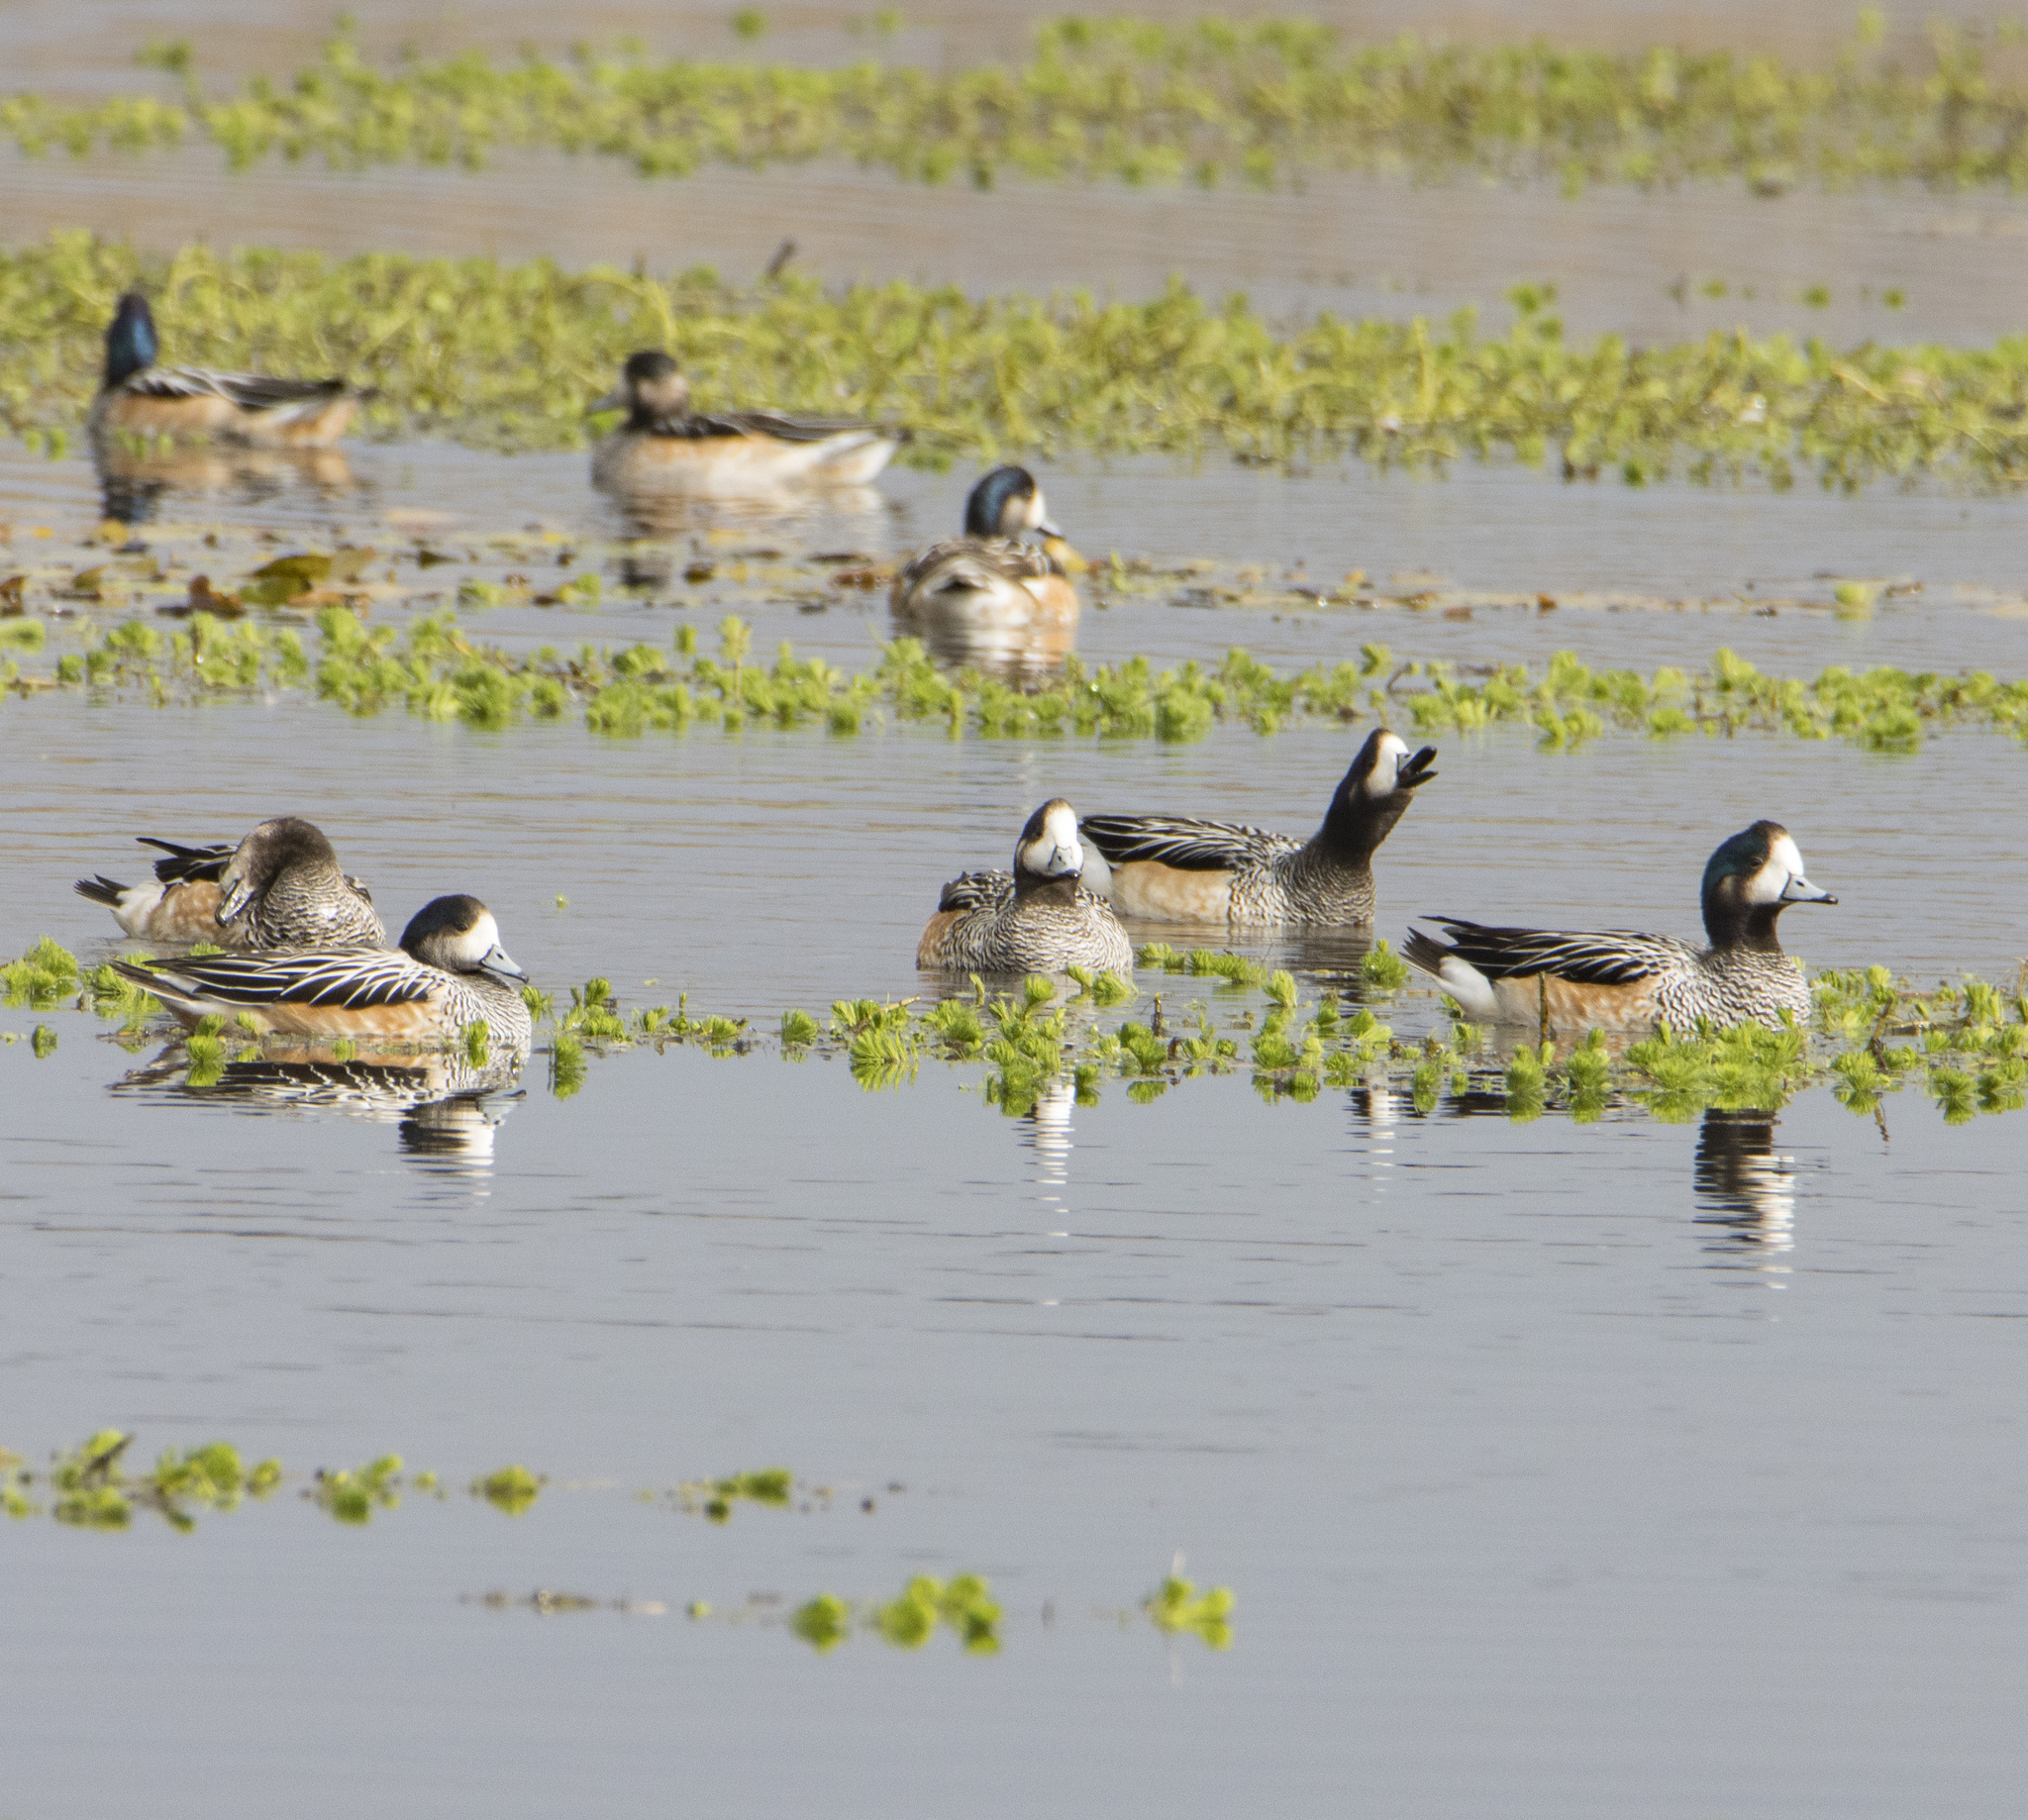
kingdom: Animalia
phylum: Chordata
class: Aves
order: Anseriformes
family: Anatidae
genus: Mareca
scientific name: Mareca sibilatrix
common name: Chiloe wigeon
